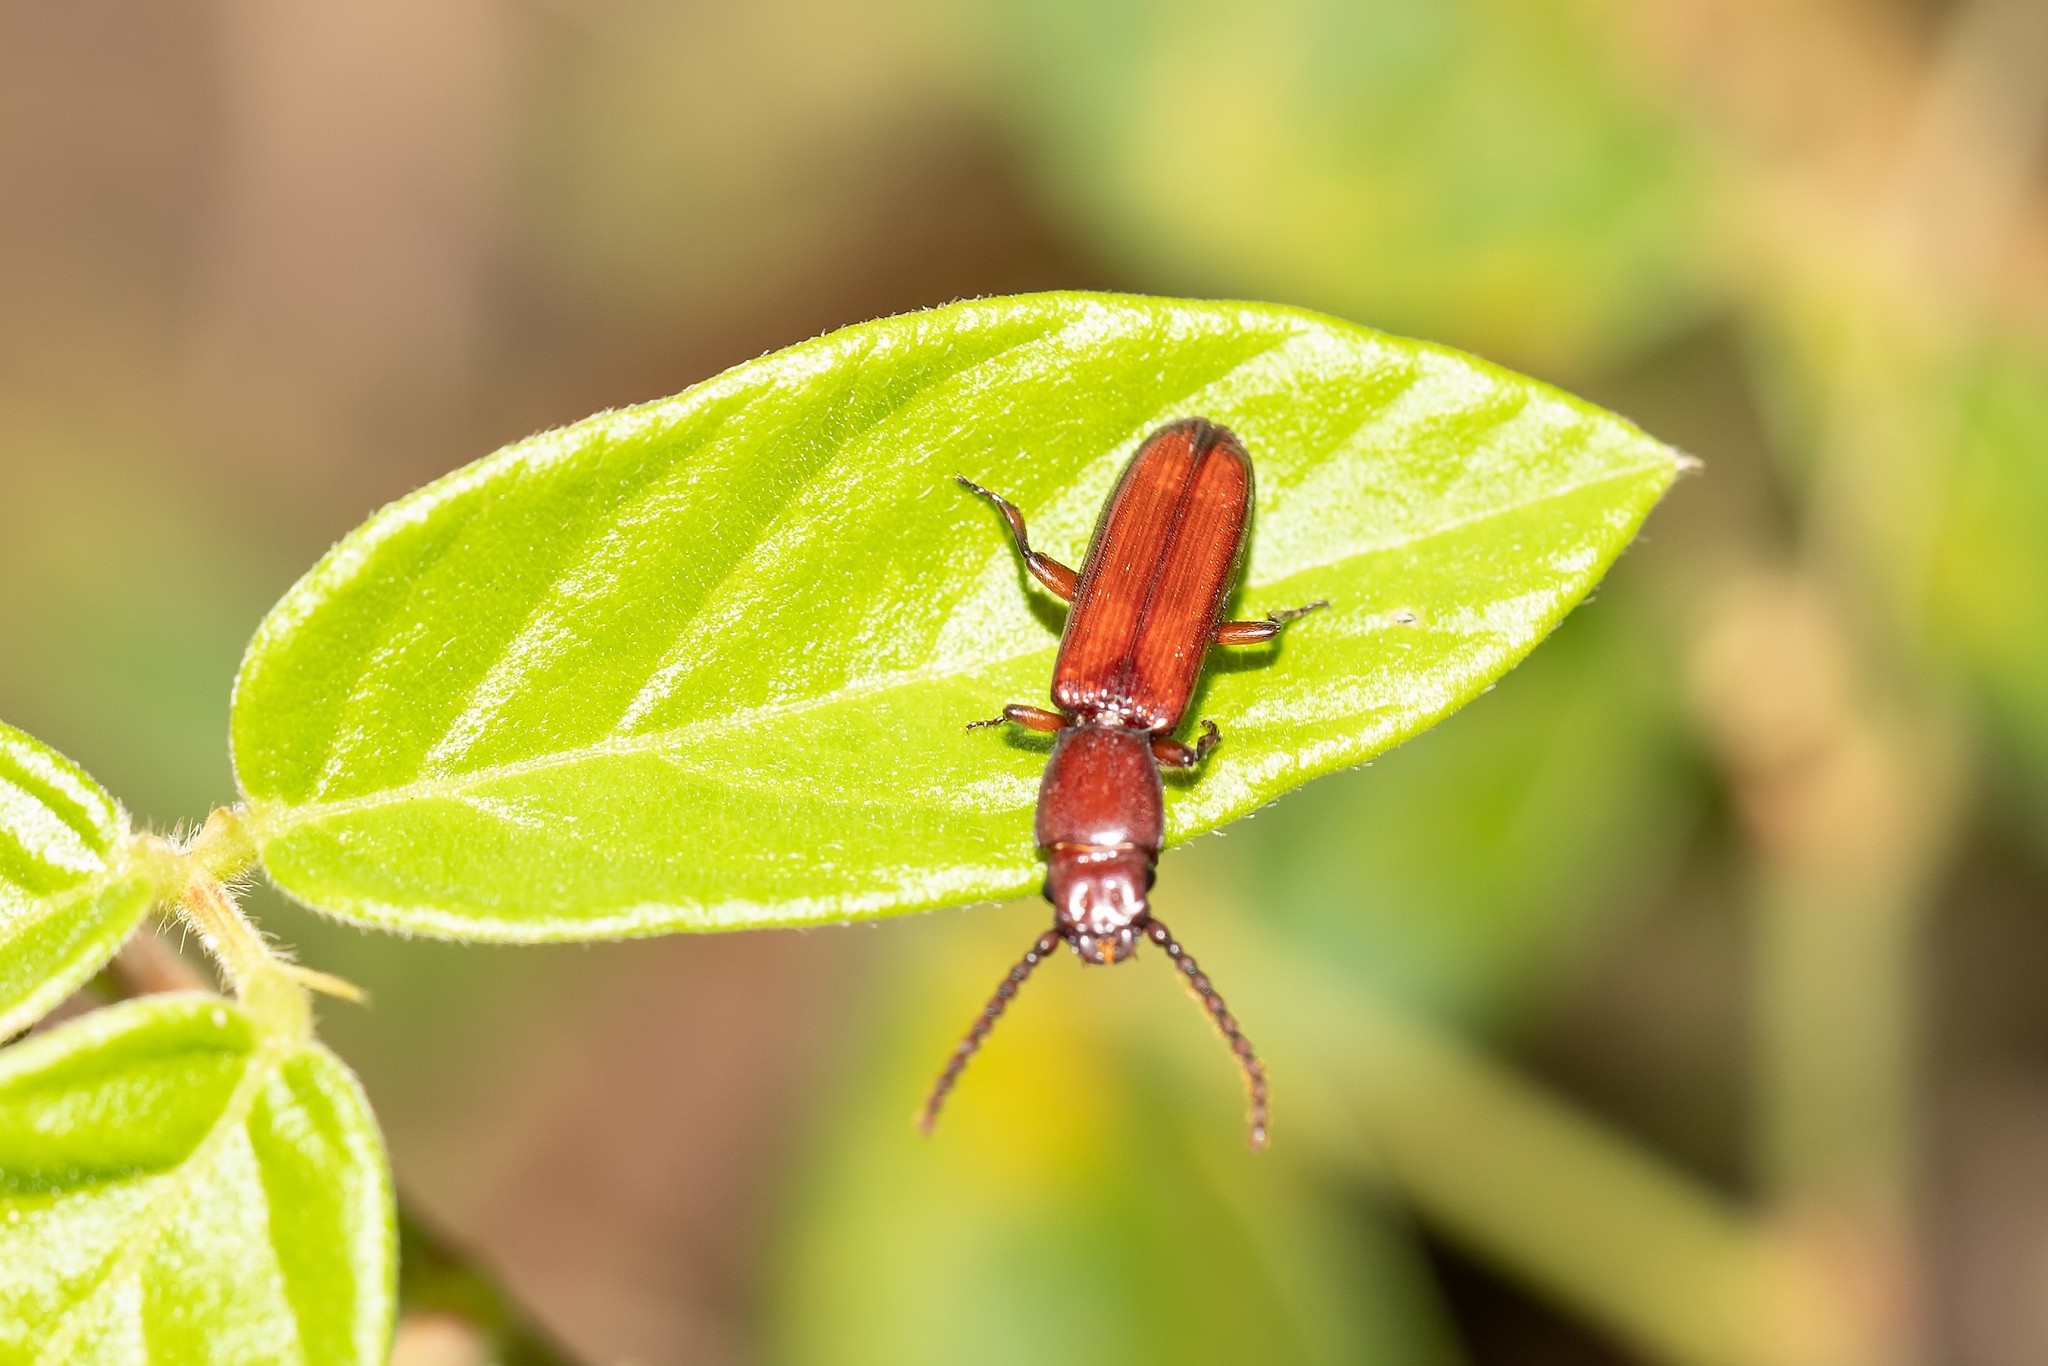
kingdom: Animalia
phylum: Arthropoda
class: Insecta
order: Coleoptera
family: Passandridae
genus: Catogenus
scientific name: Catogenus rufus
